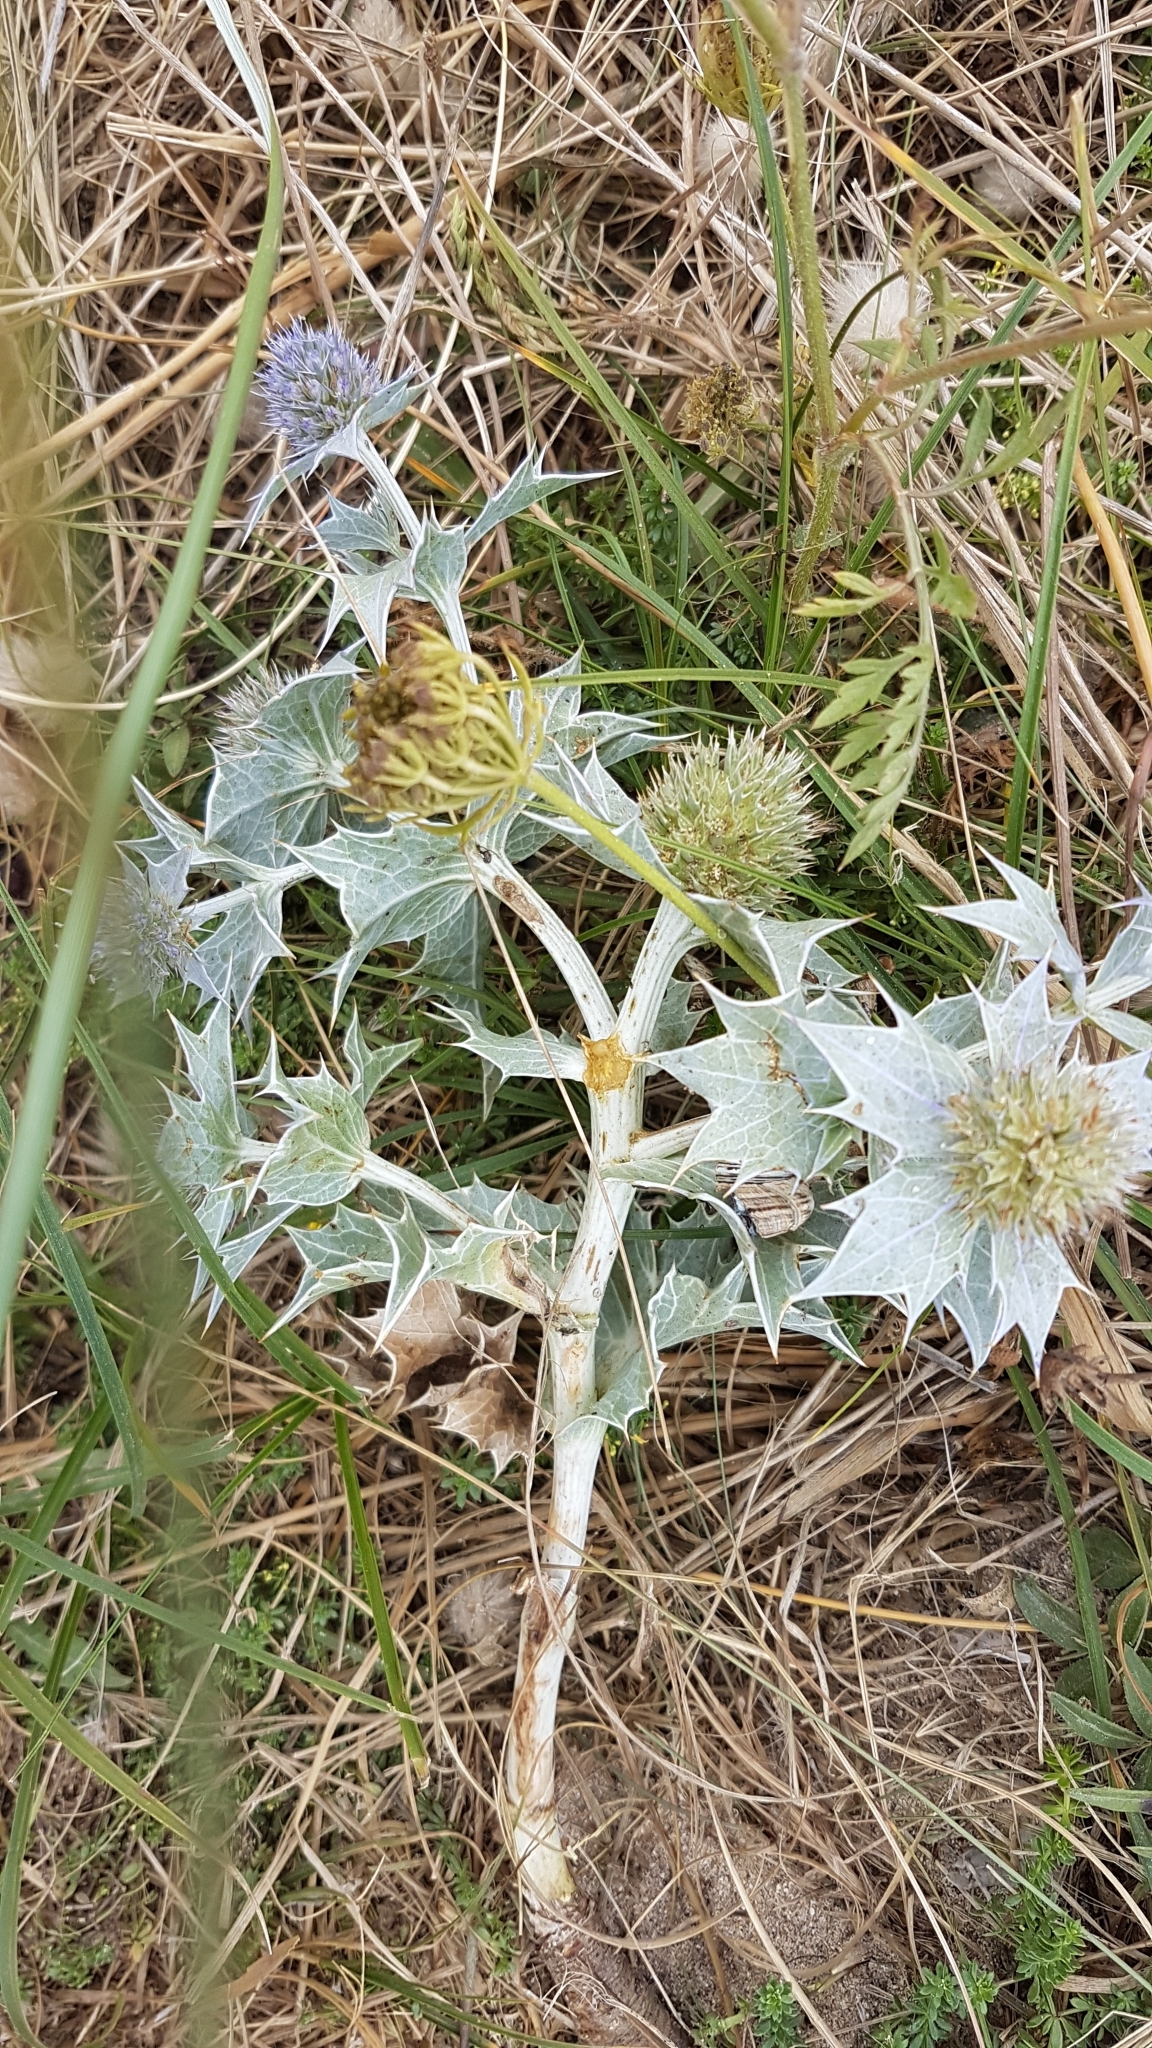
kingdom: Plantae
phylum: Tracheophyta
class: Magnoliopsida
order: Apiales
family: Apiaceae
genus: Eryngium
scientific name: Eryngium maritimum
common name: Sea-holly
